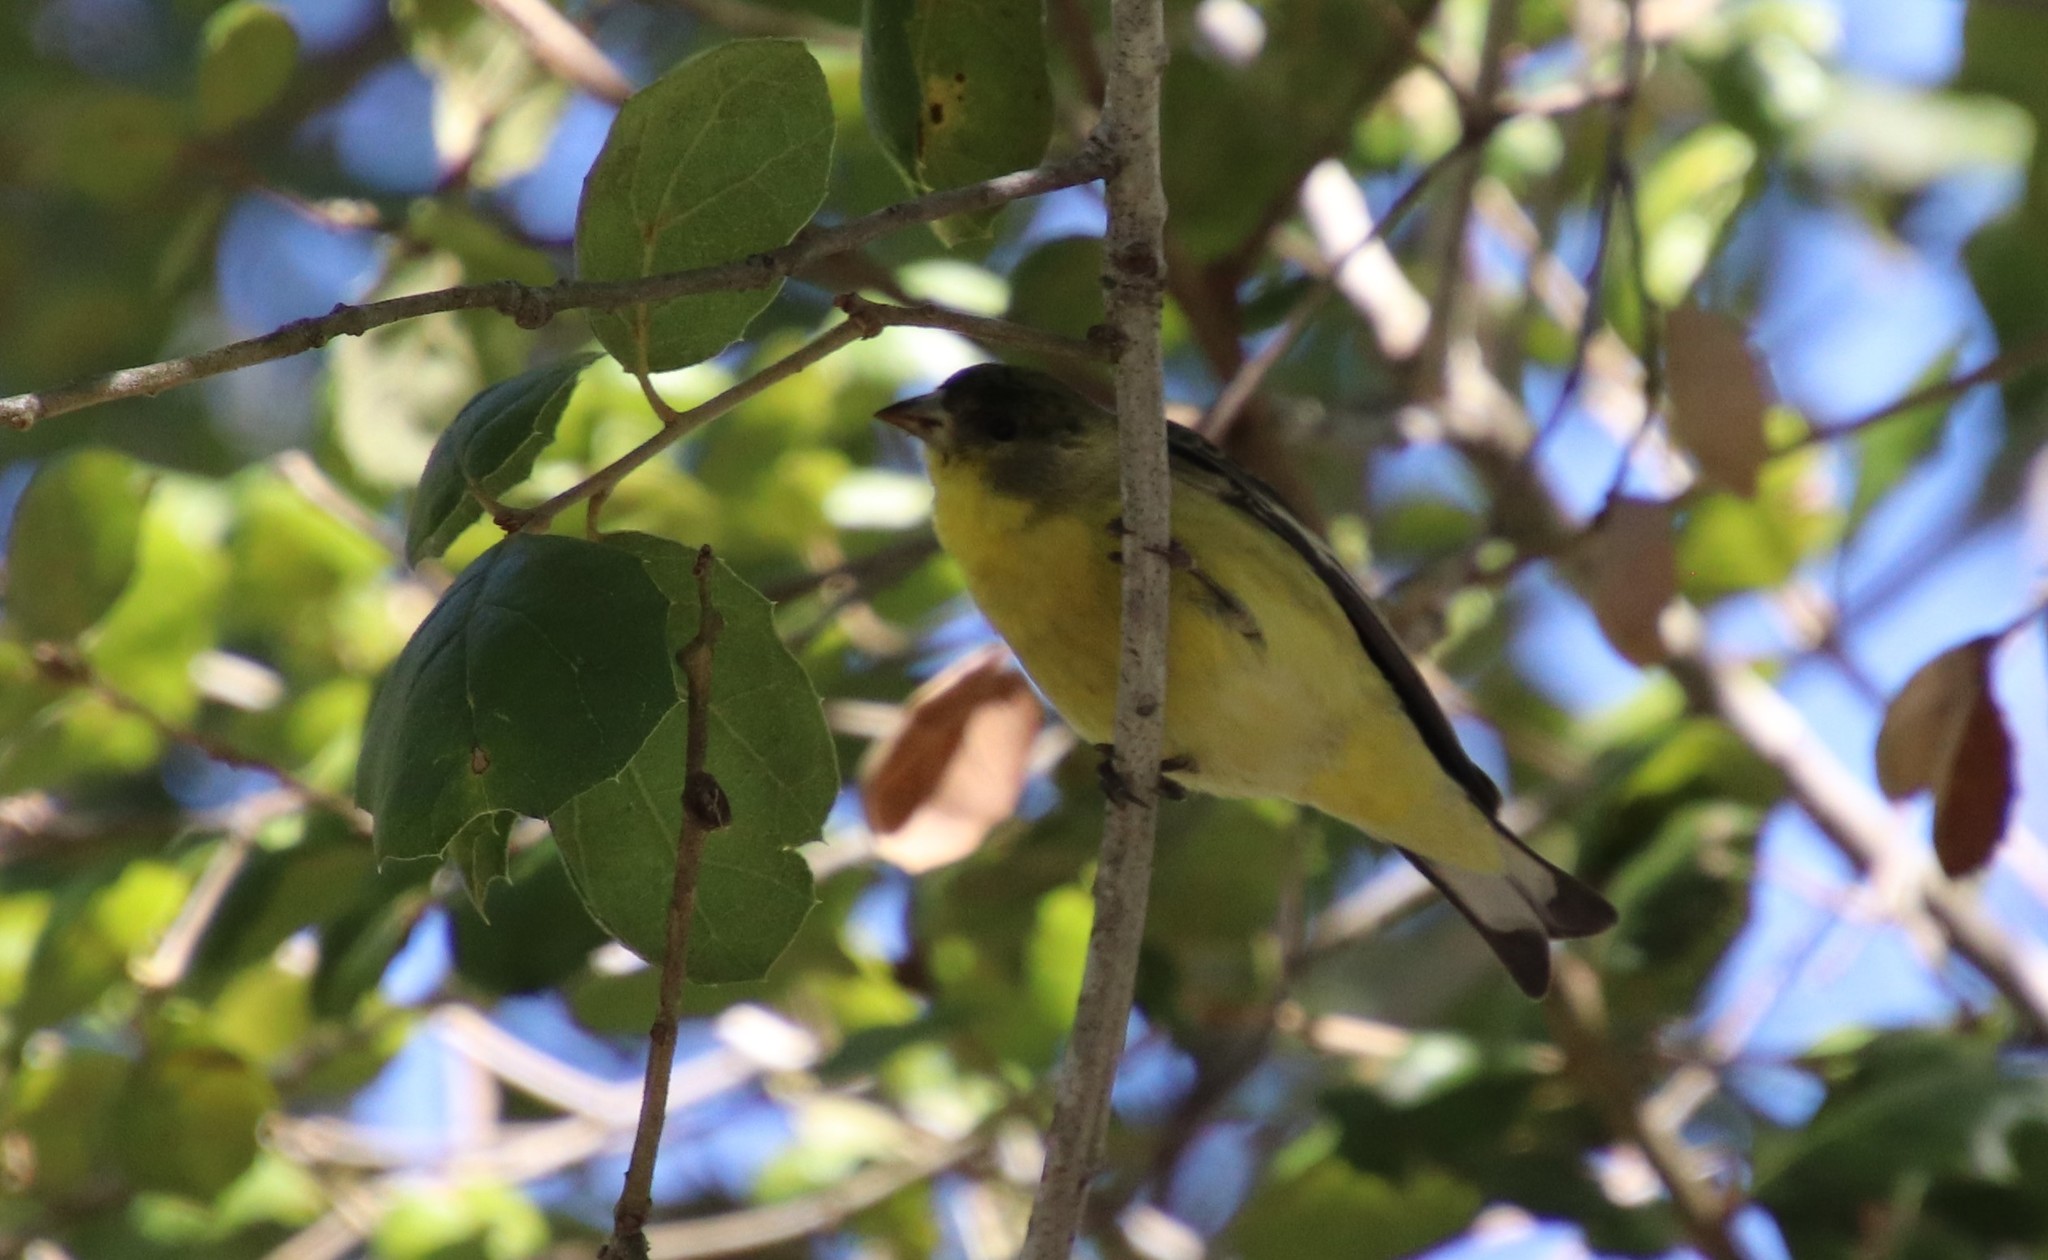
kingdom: Animalia
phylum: Chordata
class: Aves
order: Passeriformes
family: Fringillidae
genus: Spinus
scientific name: Spinus psaltria
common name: Lesser goldfinch
